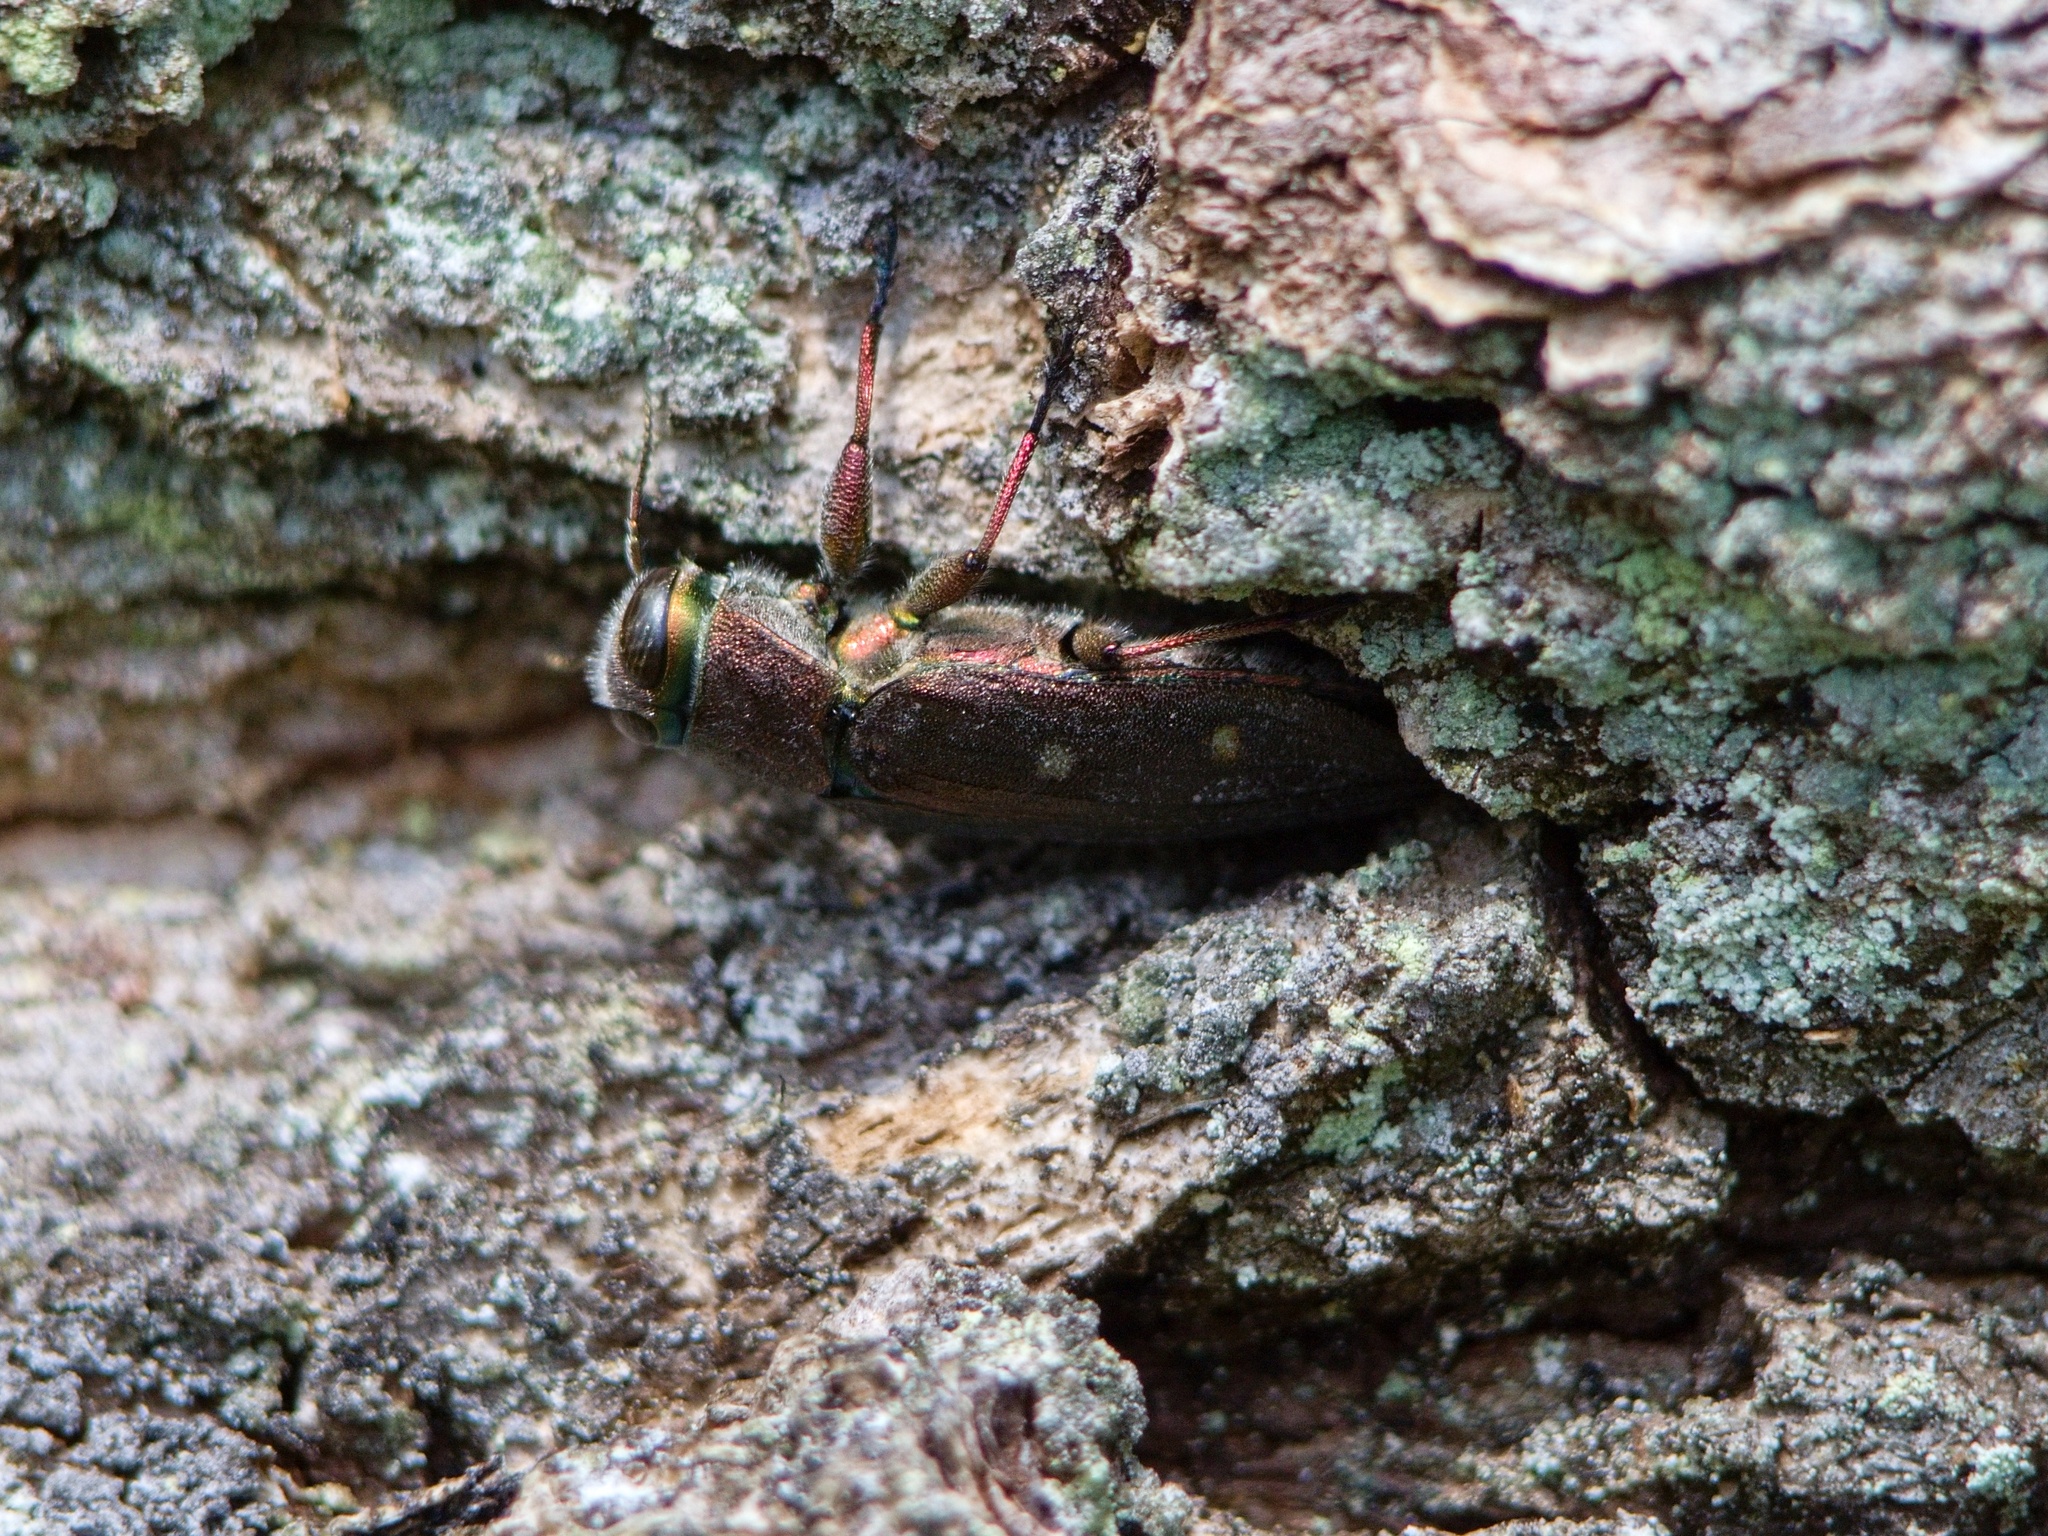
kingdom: Animalia
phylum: Arthropoda
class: Insecta
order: Coleoptera
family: Buprestidae
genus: Chrysobothris
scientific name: Chrysobothris affinis
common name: Beetle
